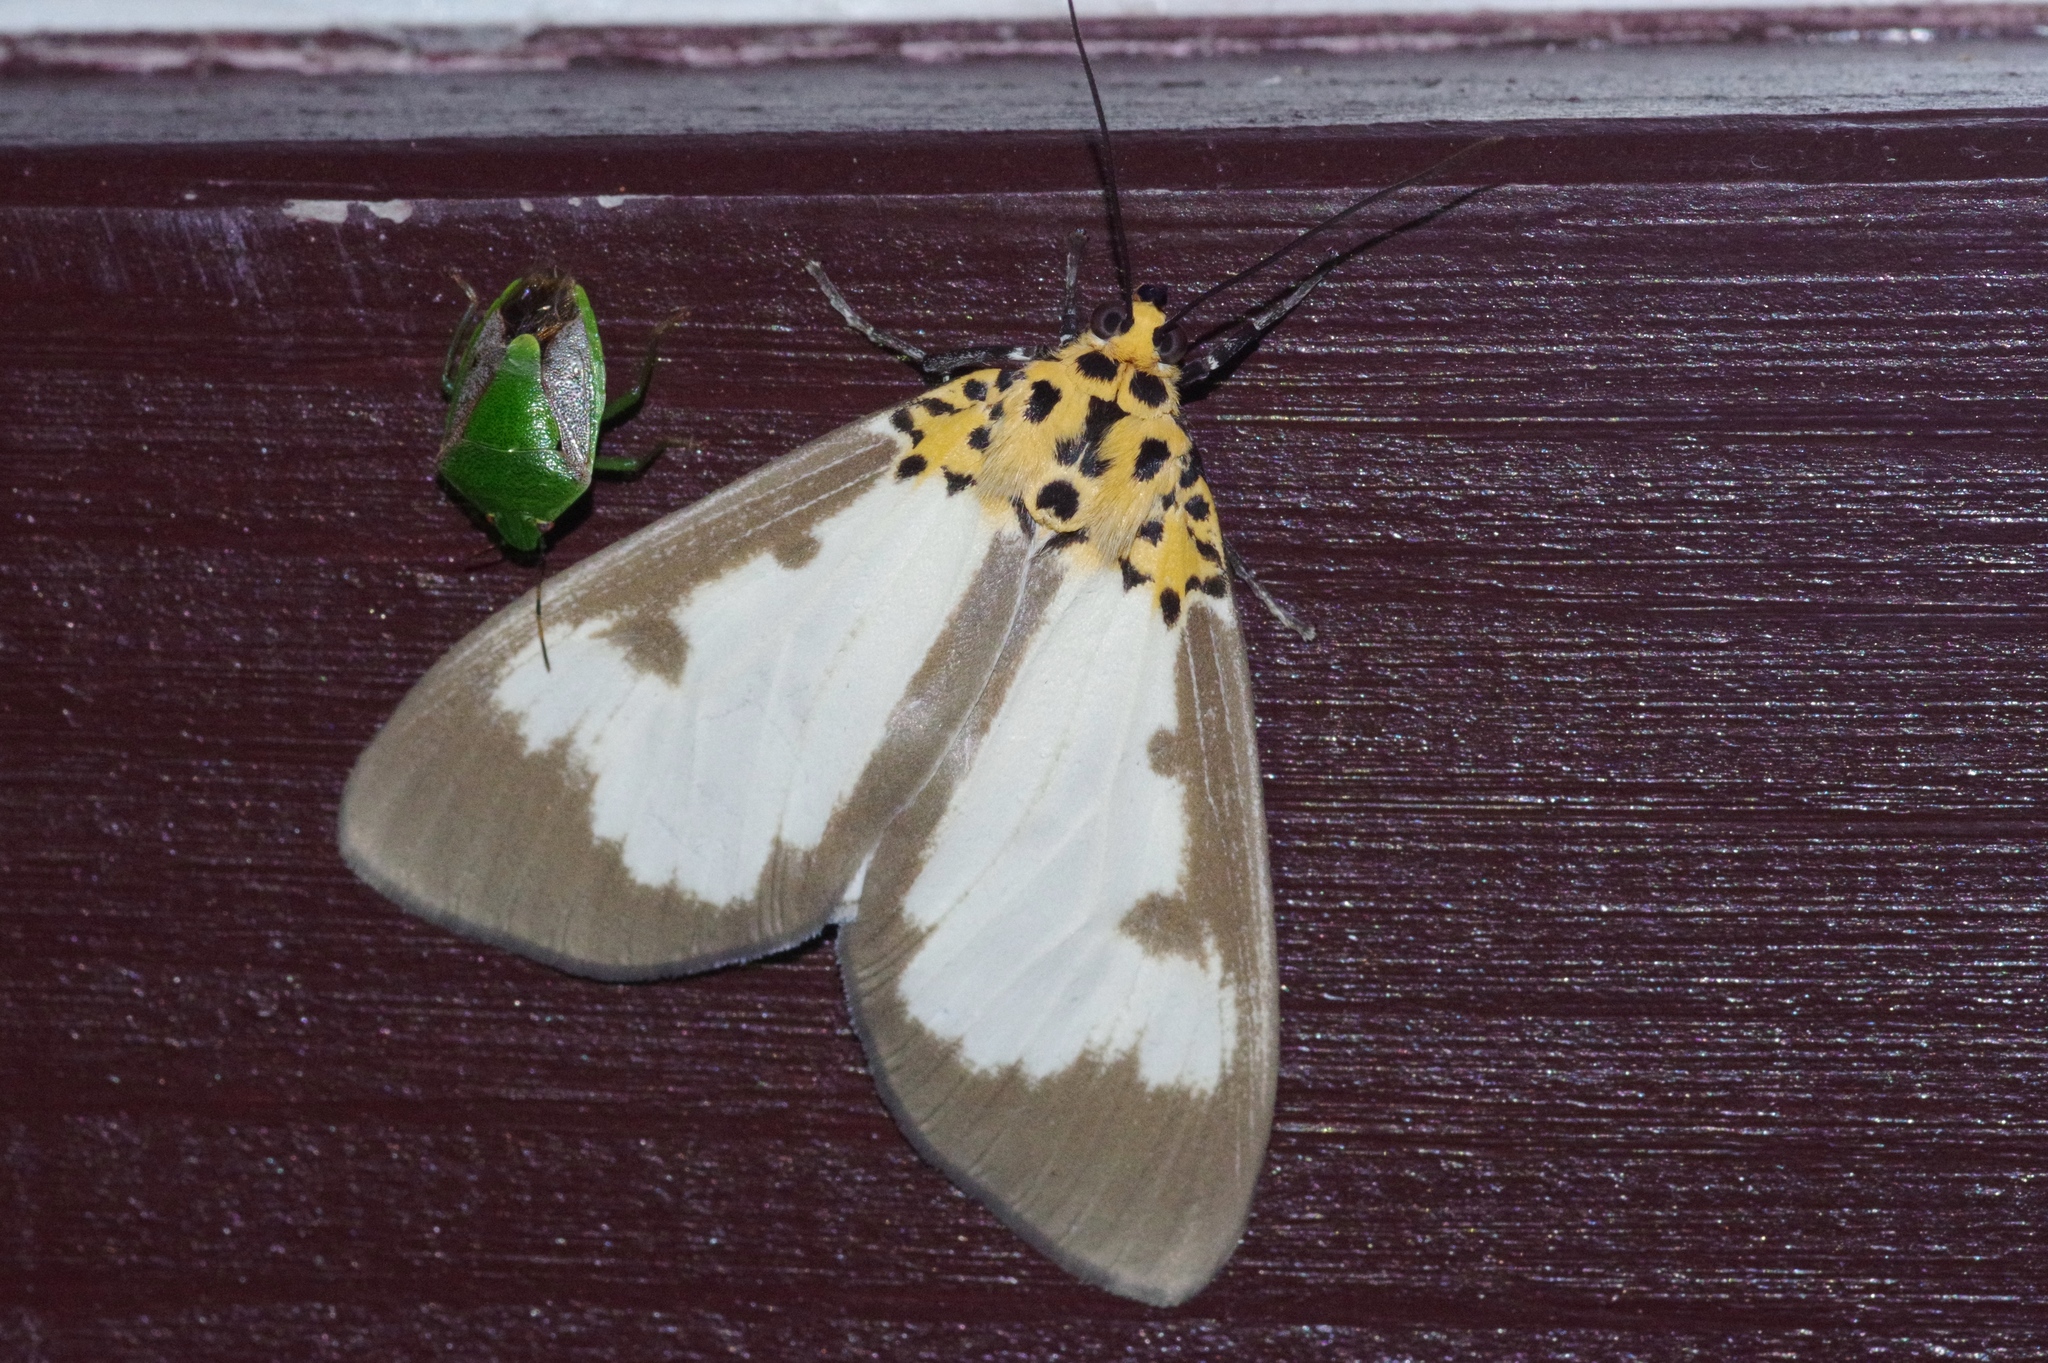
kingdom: Animalia
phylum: Arthropoda
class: Insecta
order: Lepidoptera
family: Erebidae
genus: Asota
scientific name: Asota plana
